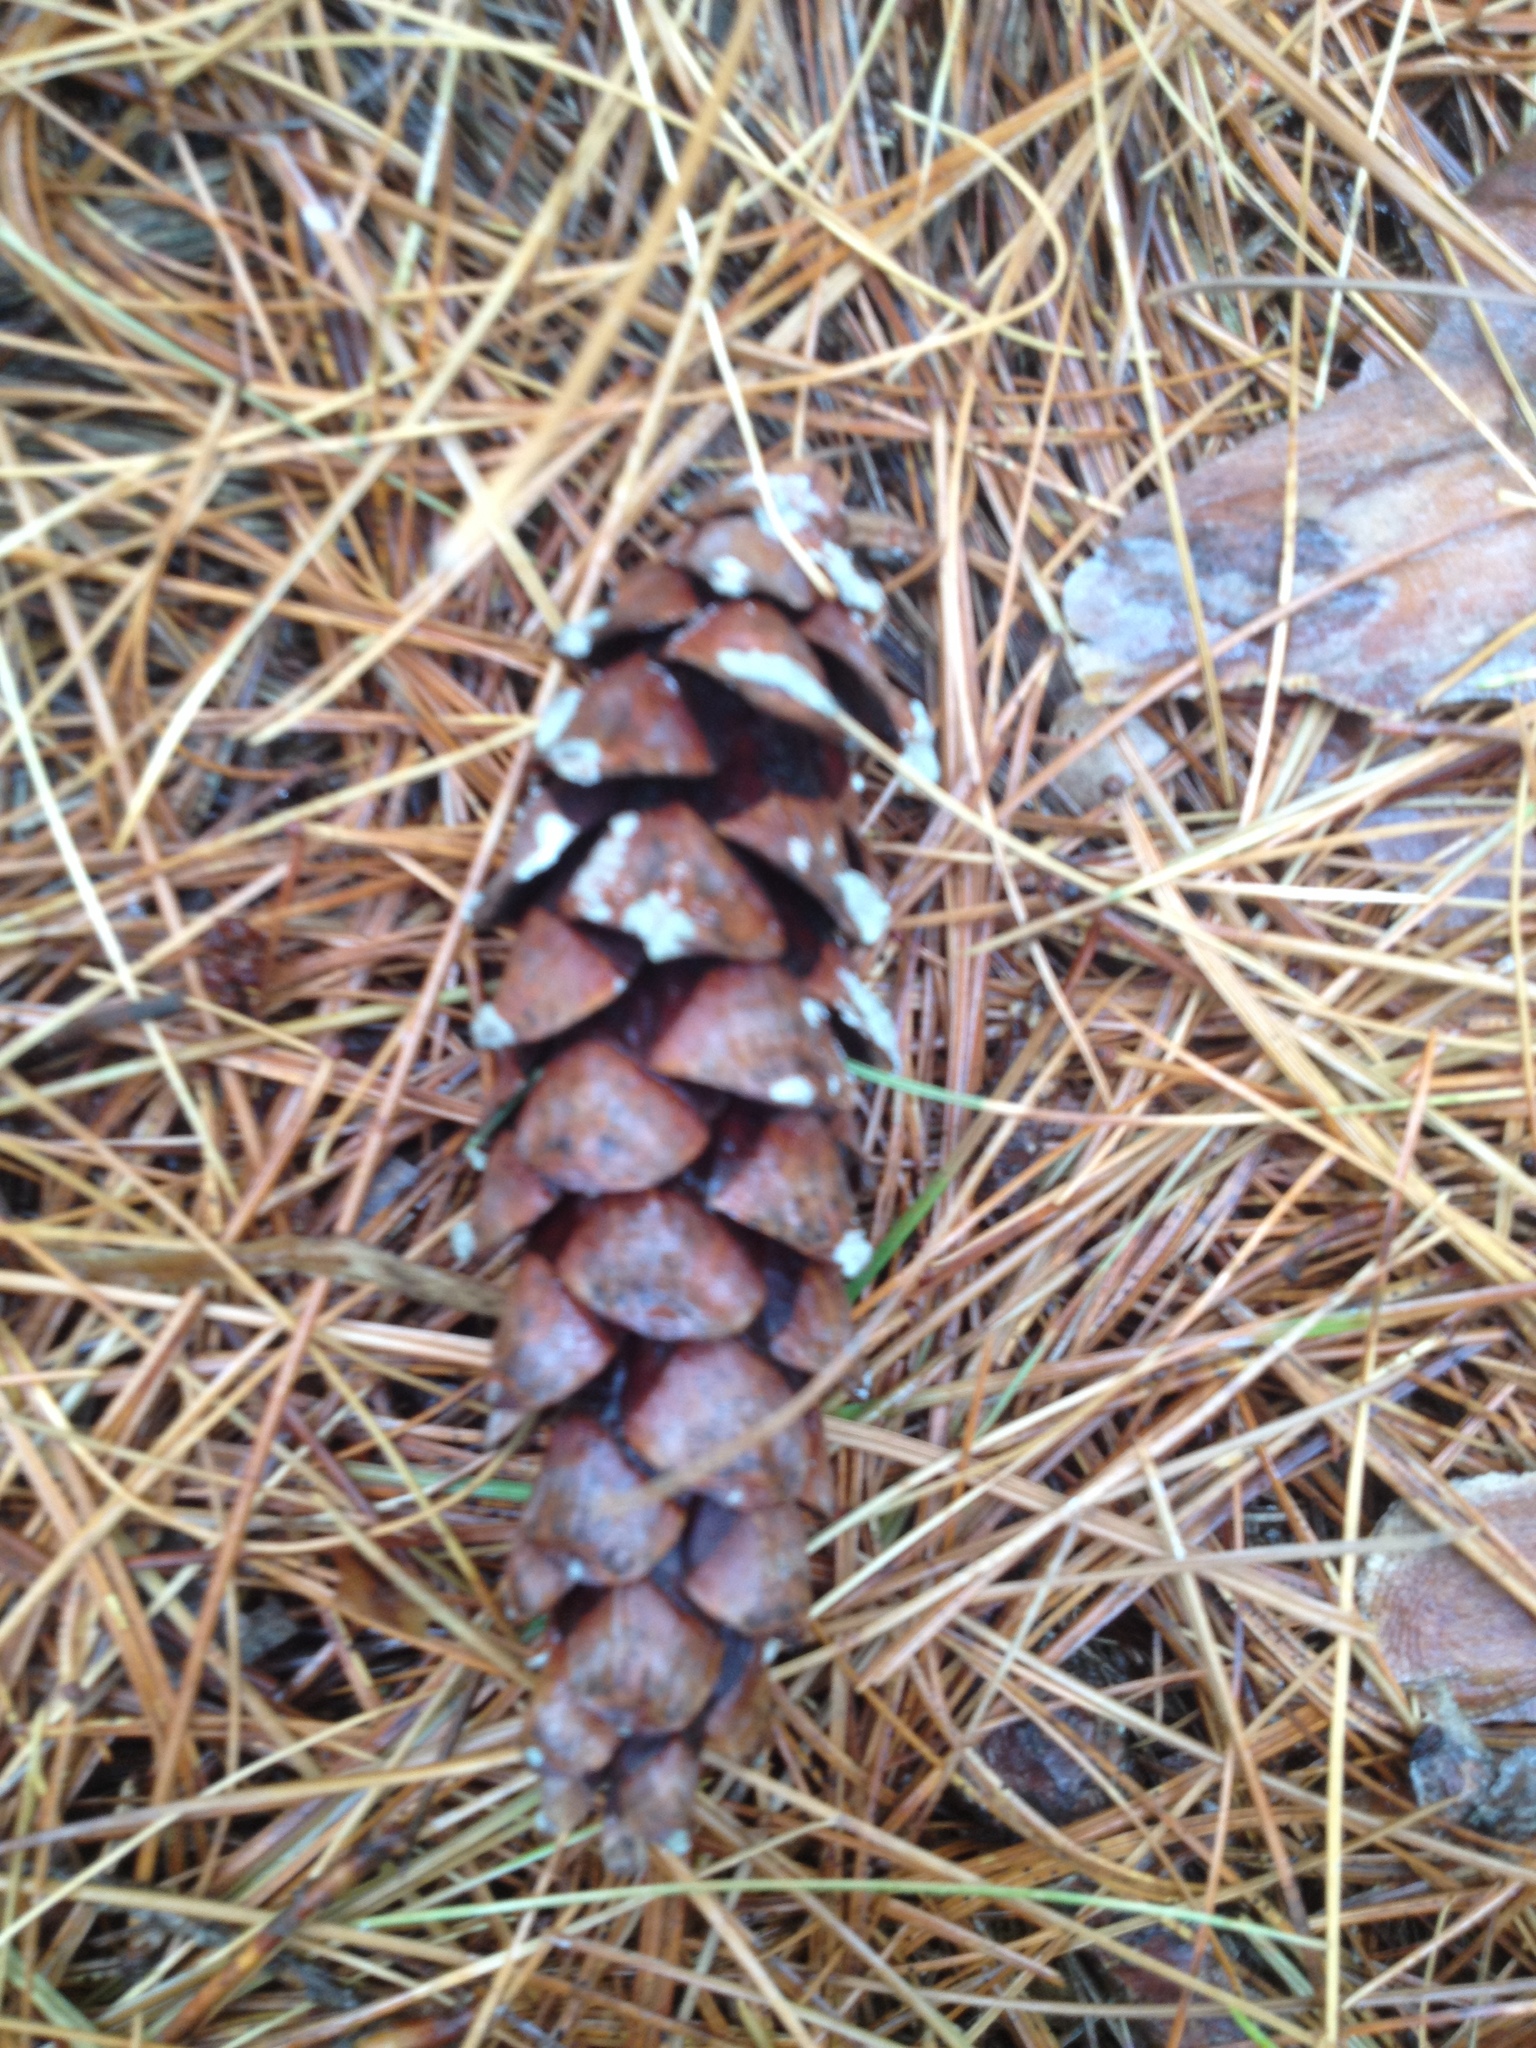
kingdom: Plantae
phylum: Tracheophyta
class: Pinopsida
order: Pinales
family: Pinaceae
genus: Pinus
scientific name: Pinus strobus
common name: Weymouth pine
